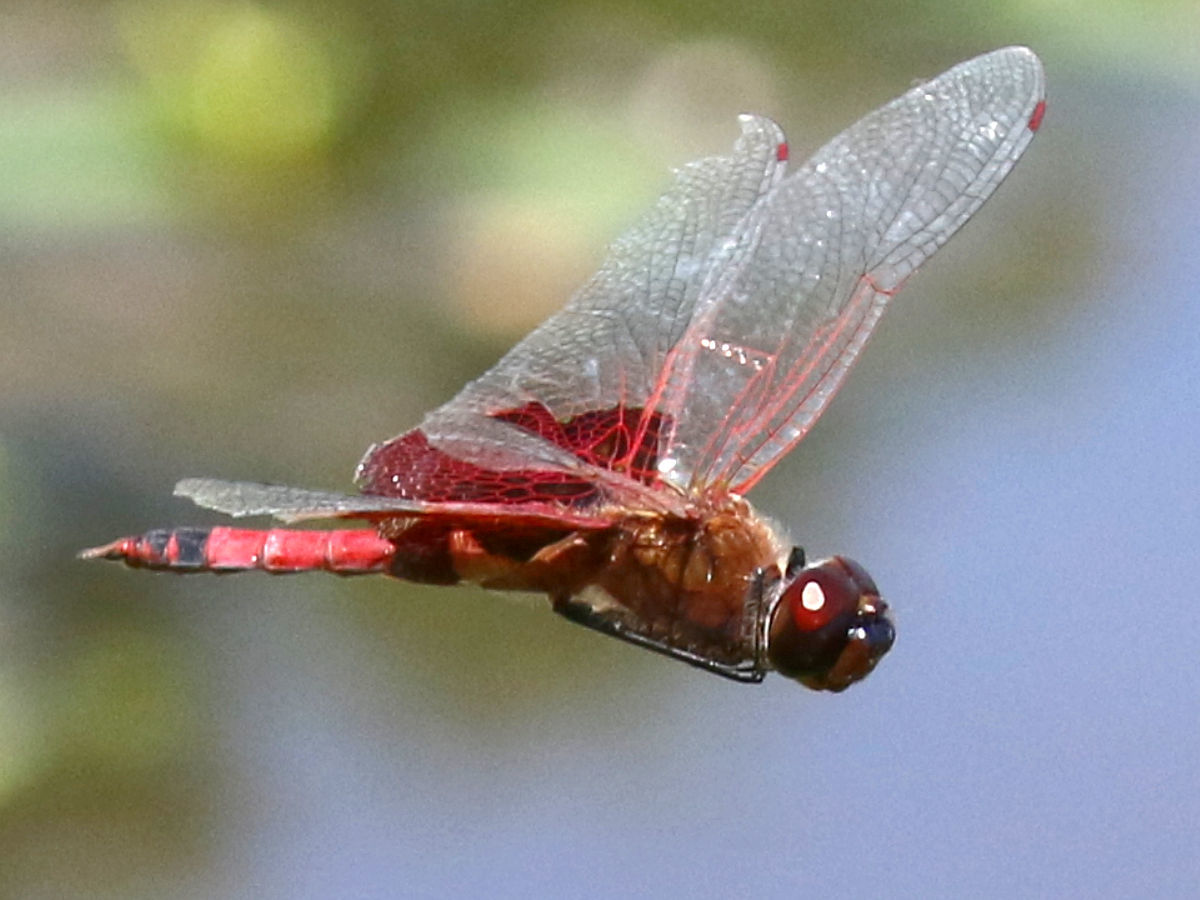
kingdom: Animalia
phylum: Arthropoda
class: Insecta
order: Odonata
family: Libellulidae
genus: Tramea
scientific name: Tramea carolina
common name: Carolina saddlebags
